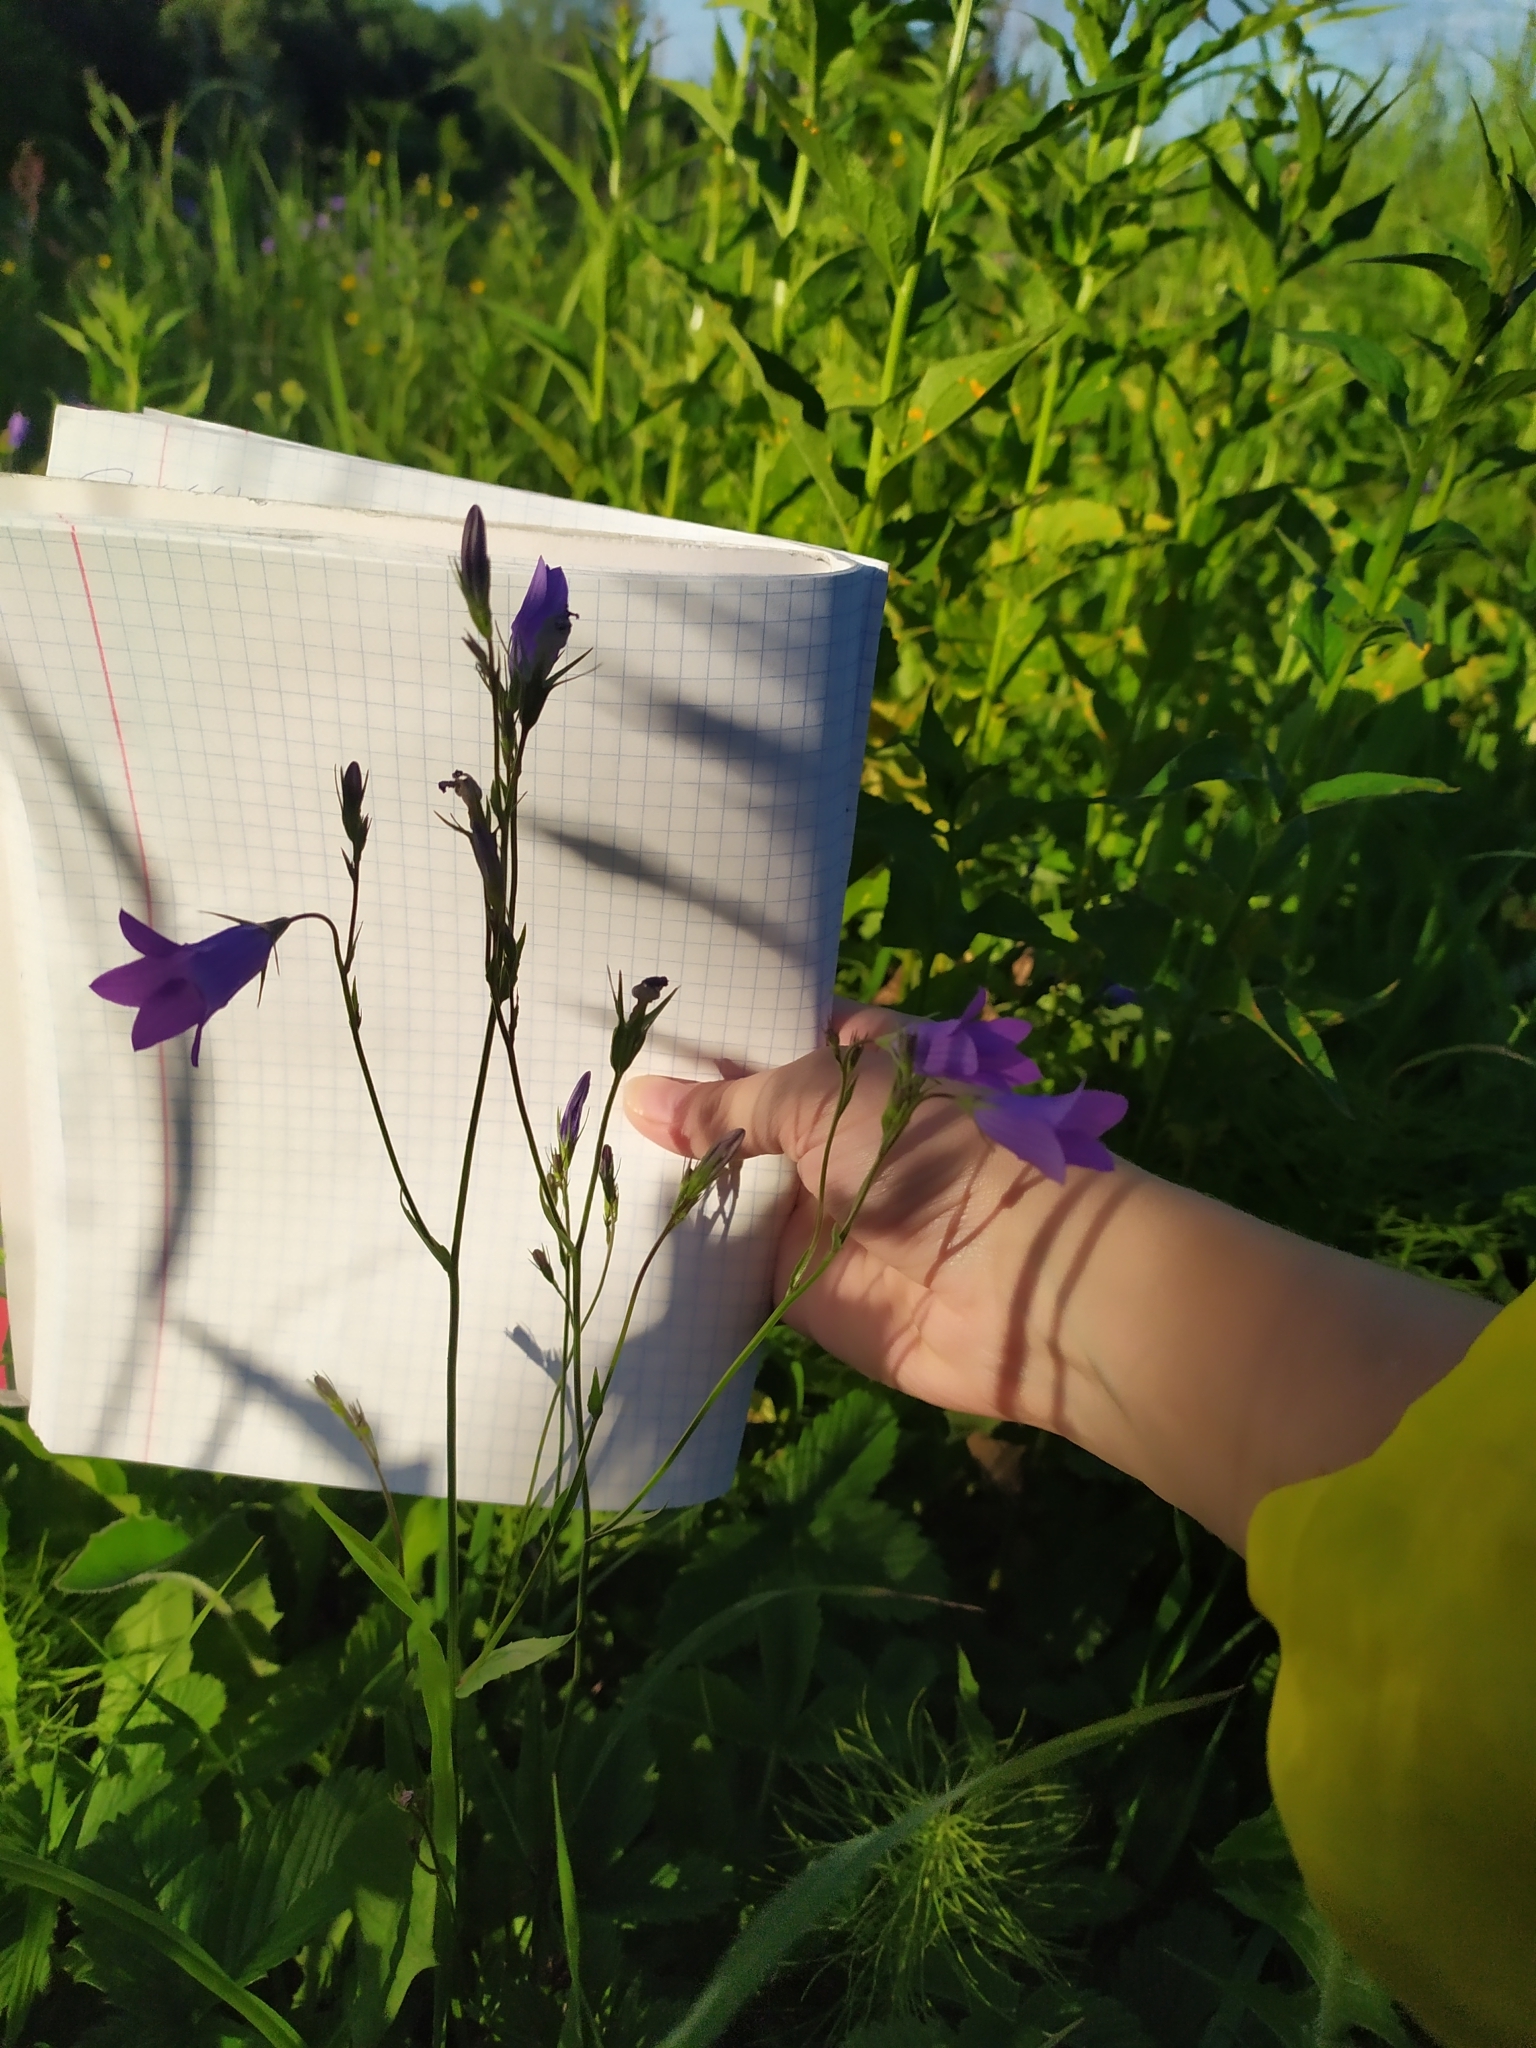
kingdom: Plantae
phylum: Tracheophyta
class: Magnoliopsida
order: Asterales
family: Campanulaceae
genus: Campanula
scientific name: Campanula patula
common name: Spreading bellflower
